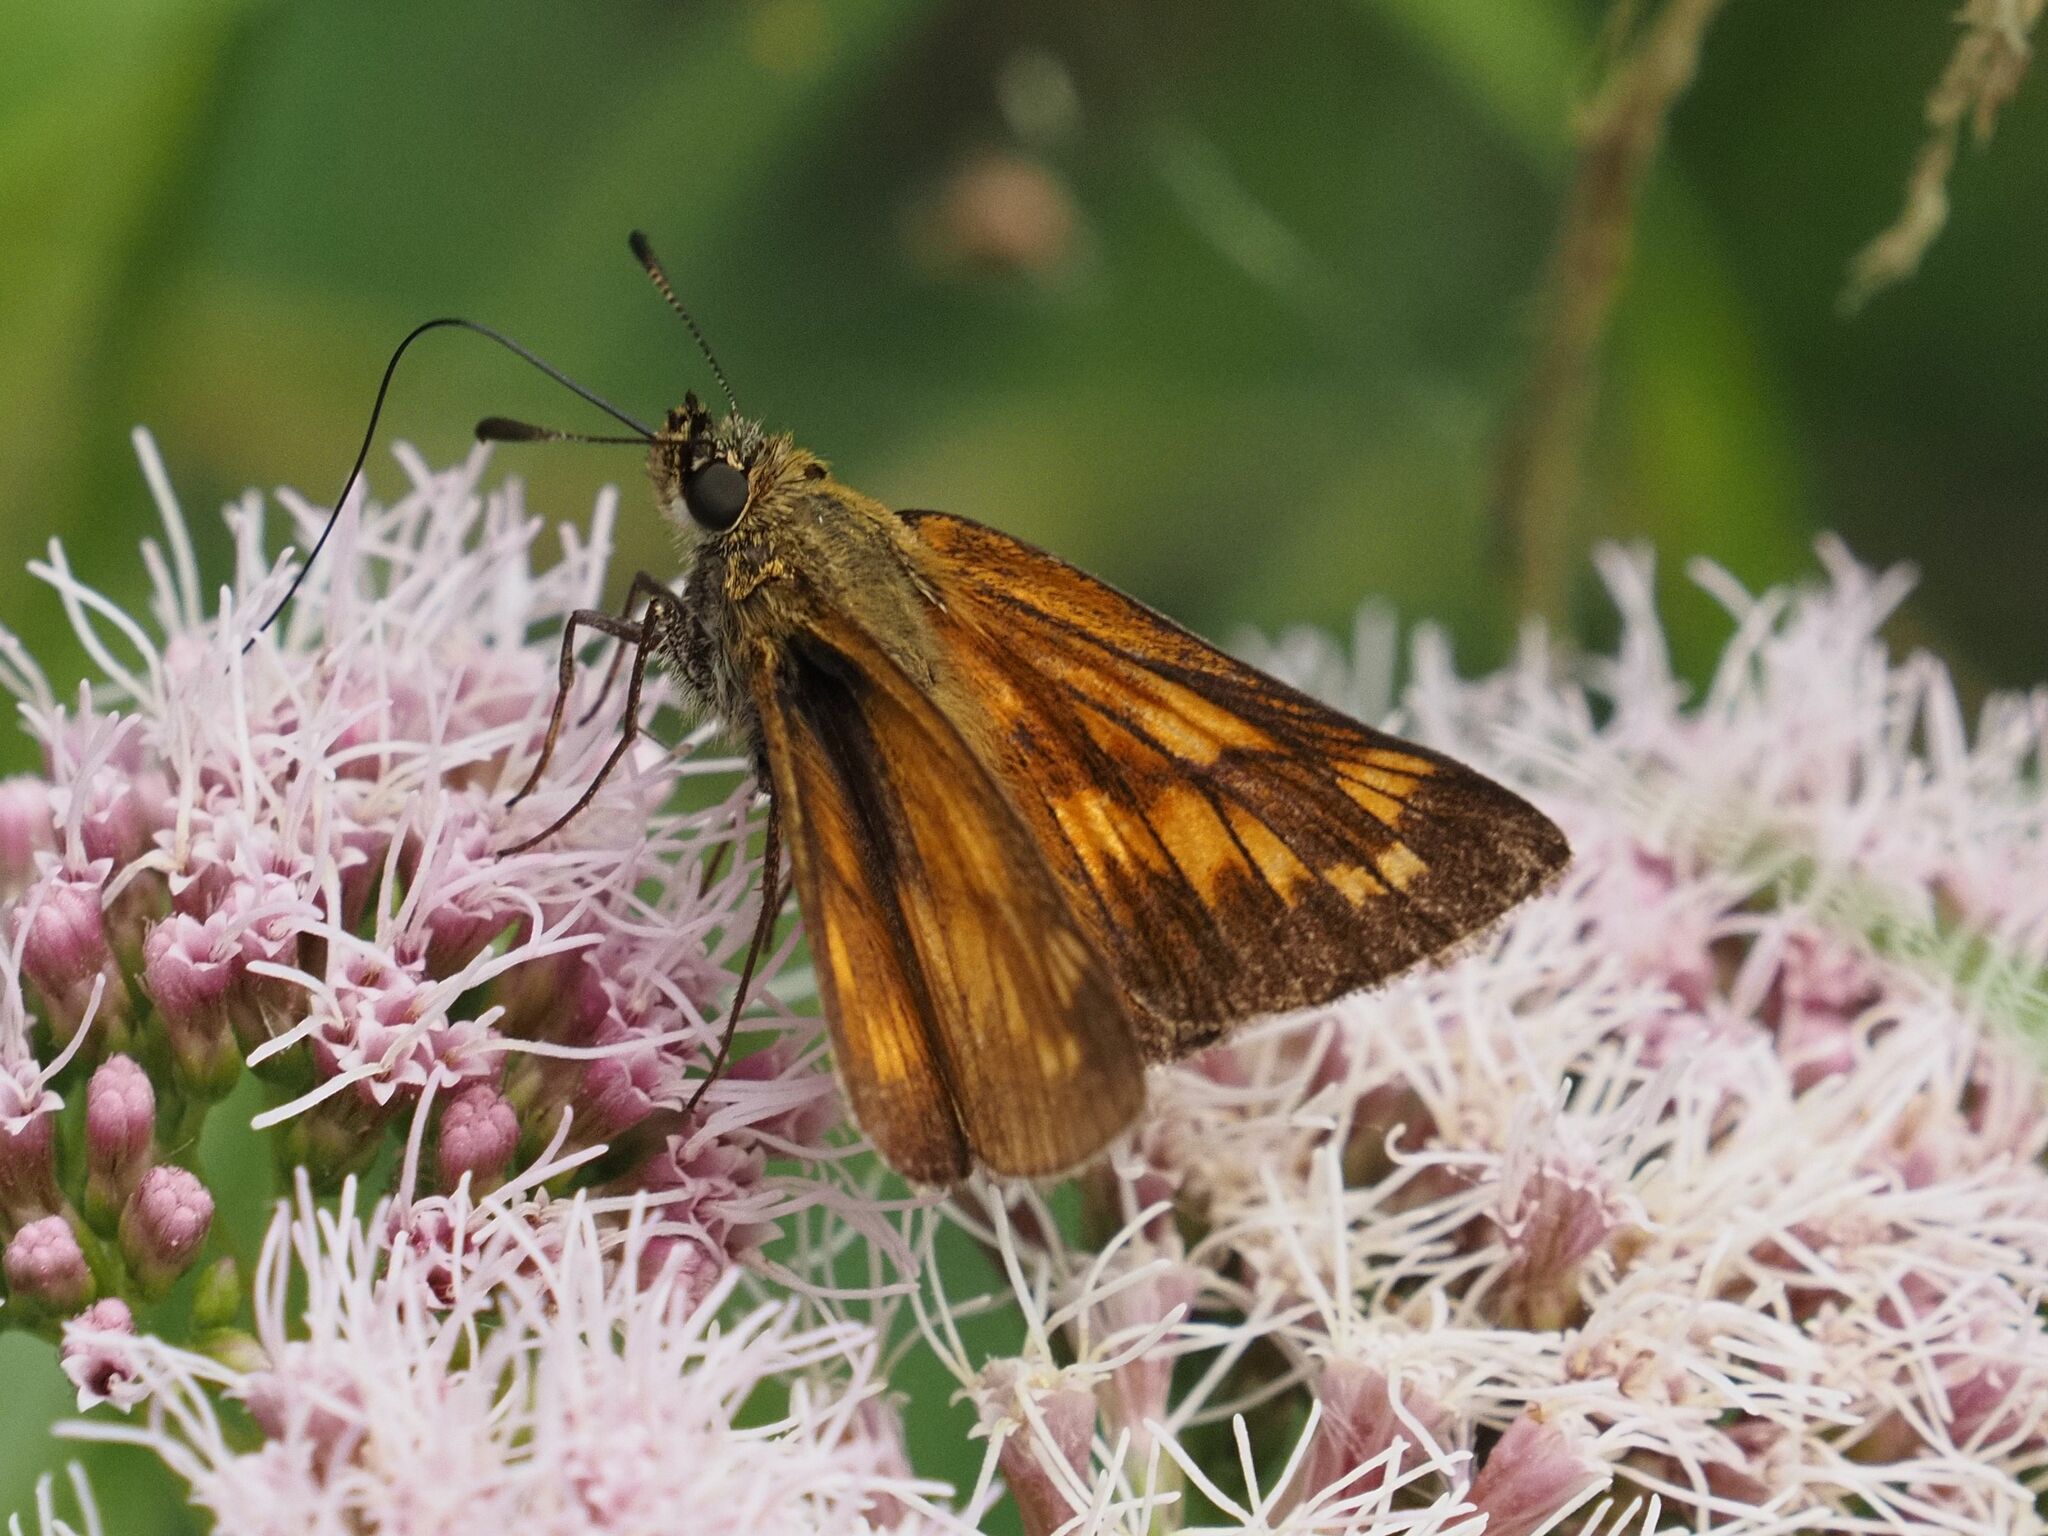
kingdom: Animalia
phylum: Arthropoda
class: Insecta
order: Lepidoptera
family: Hesperiidae
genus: Ochlodes
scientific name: Ochlodes venata
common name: Large skipper
